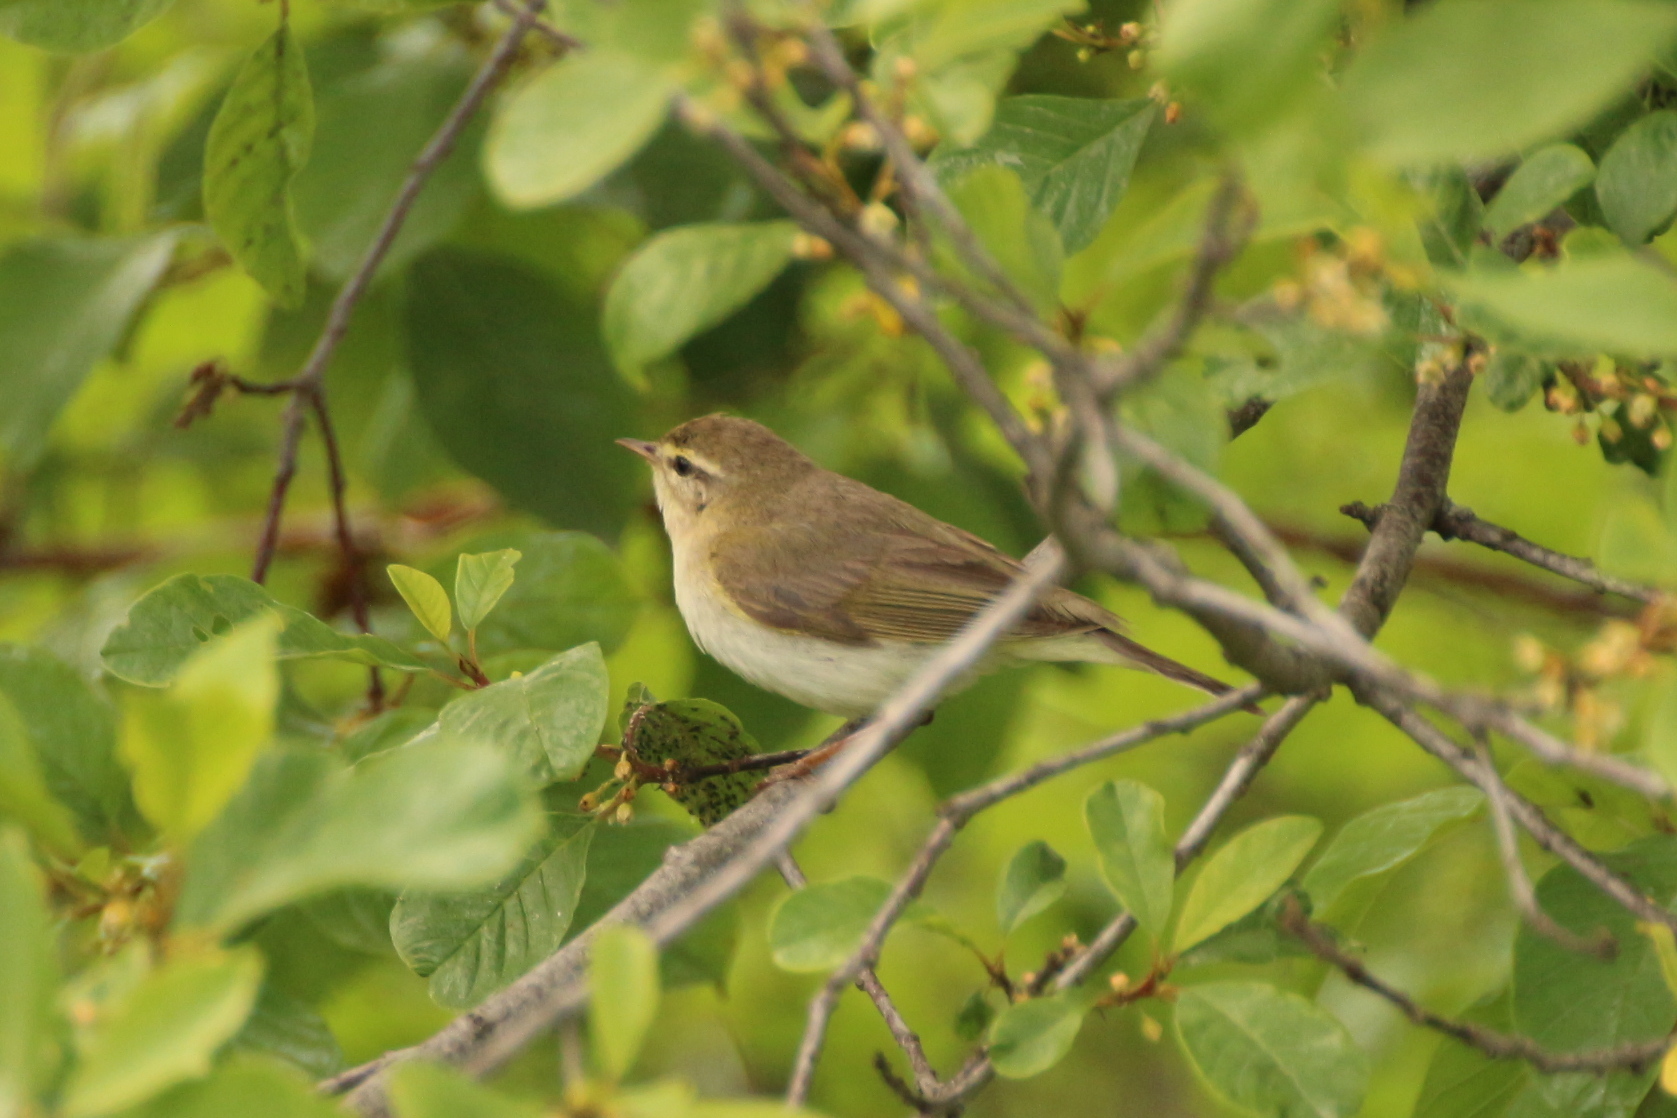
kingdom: Animalia
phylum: Chordata
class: Aves
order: Passeriformes
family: Phylloscopidae
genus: Phylloscopus
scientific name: Phylloscopus trochilus
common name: Willow warbler
